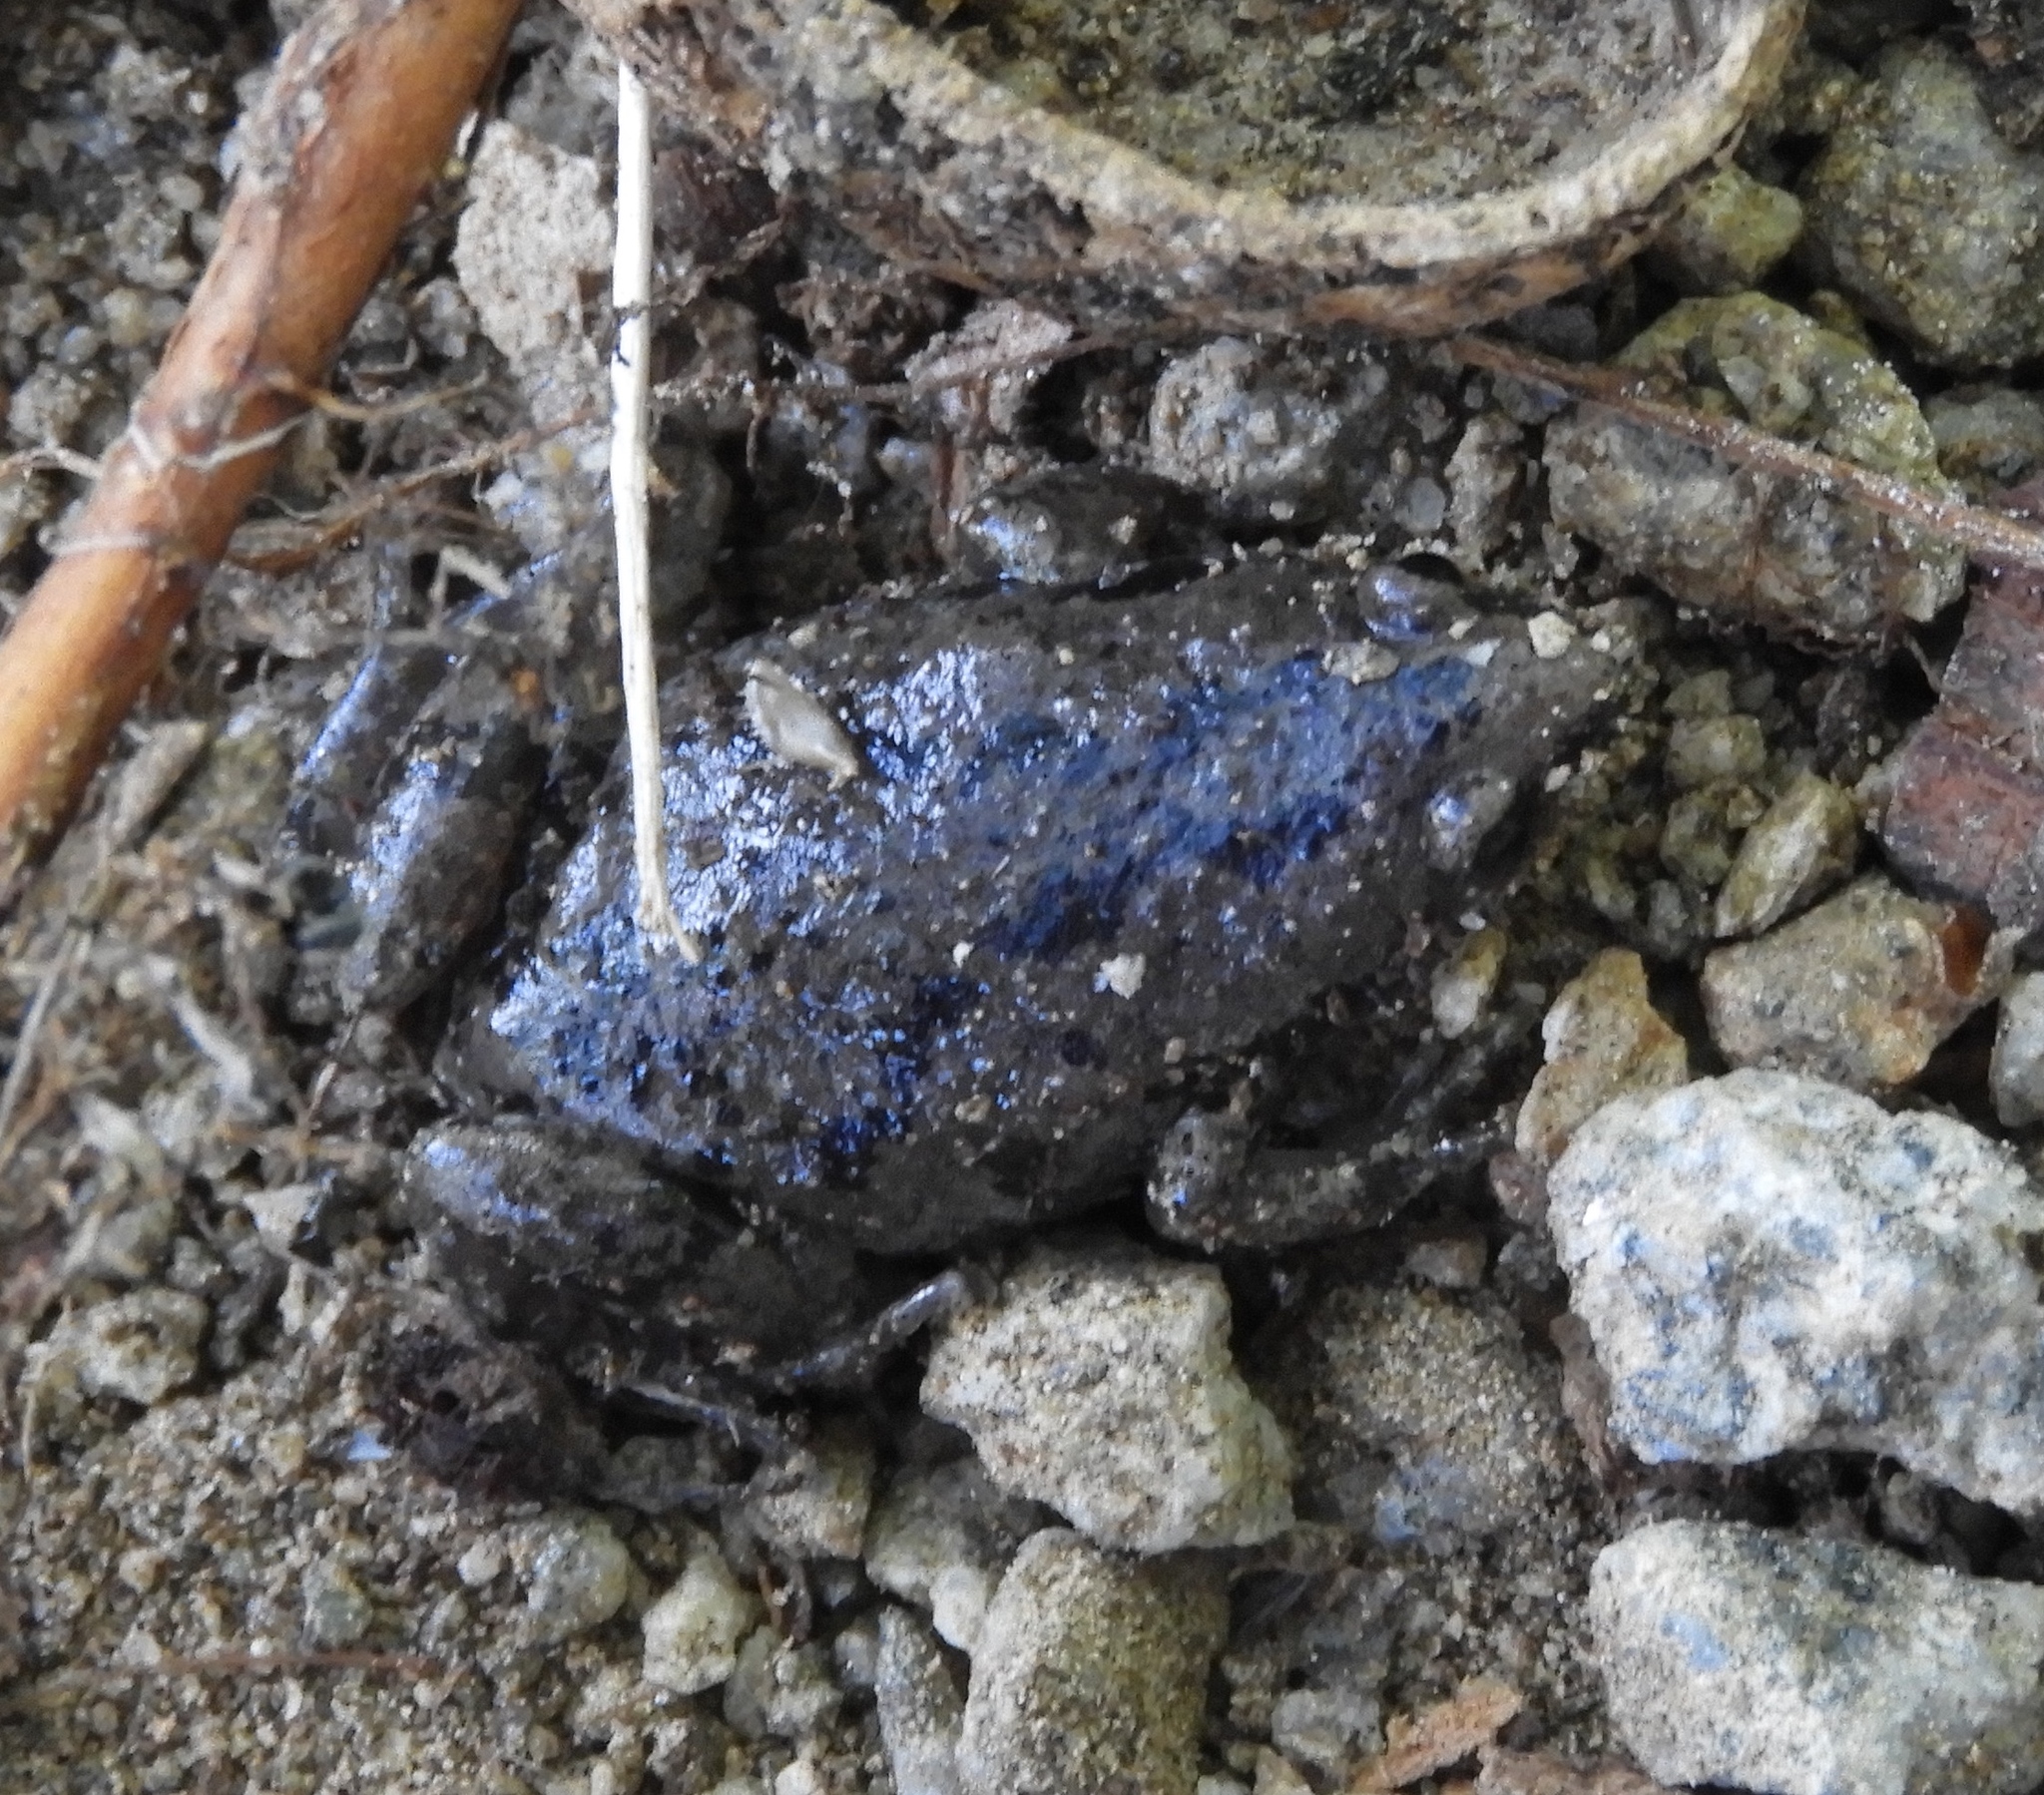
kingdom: Animalia
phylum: Chordata
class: Amphibia
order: Anura
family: Microhylidae
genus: Gastrophryne
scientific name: Gastrophryne mazatlanensis
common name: Sinaloan narrow-mouthed toad
